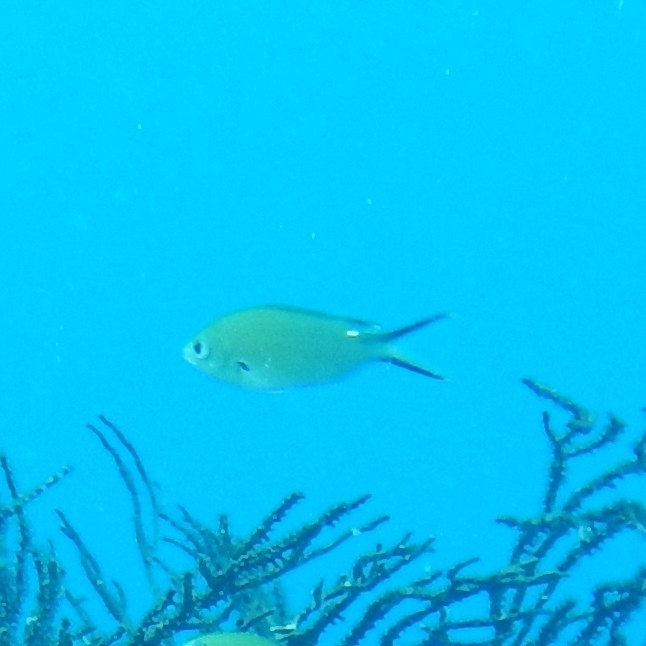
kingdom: Animalia
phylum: Chordata
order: Perciformes
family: Pomacentridae
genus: Chromis
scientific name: Chromis multilineata
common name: Brown chromis
